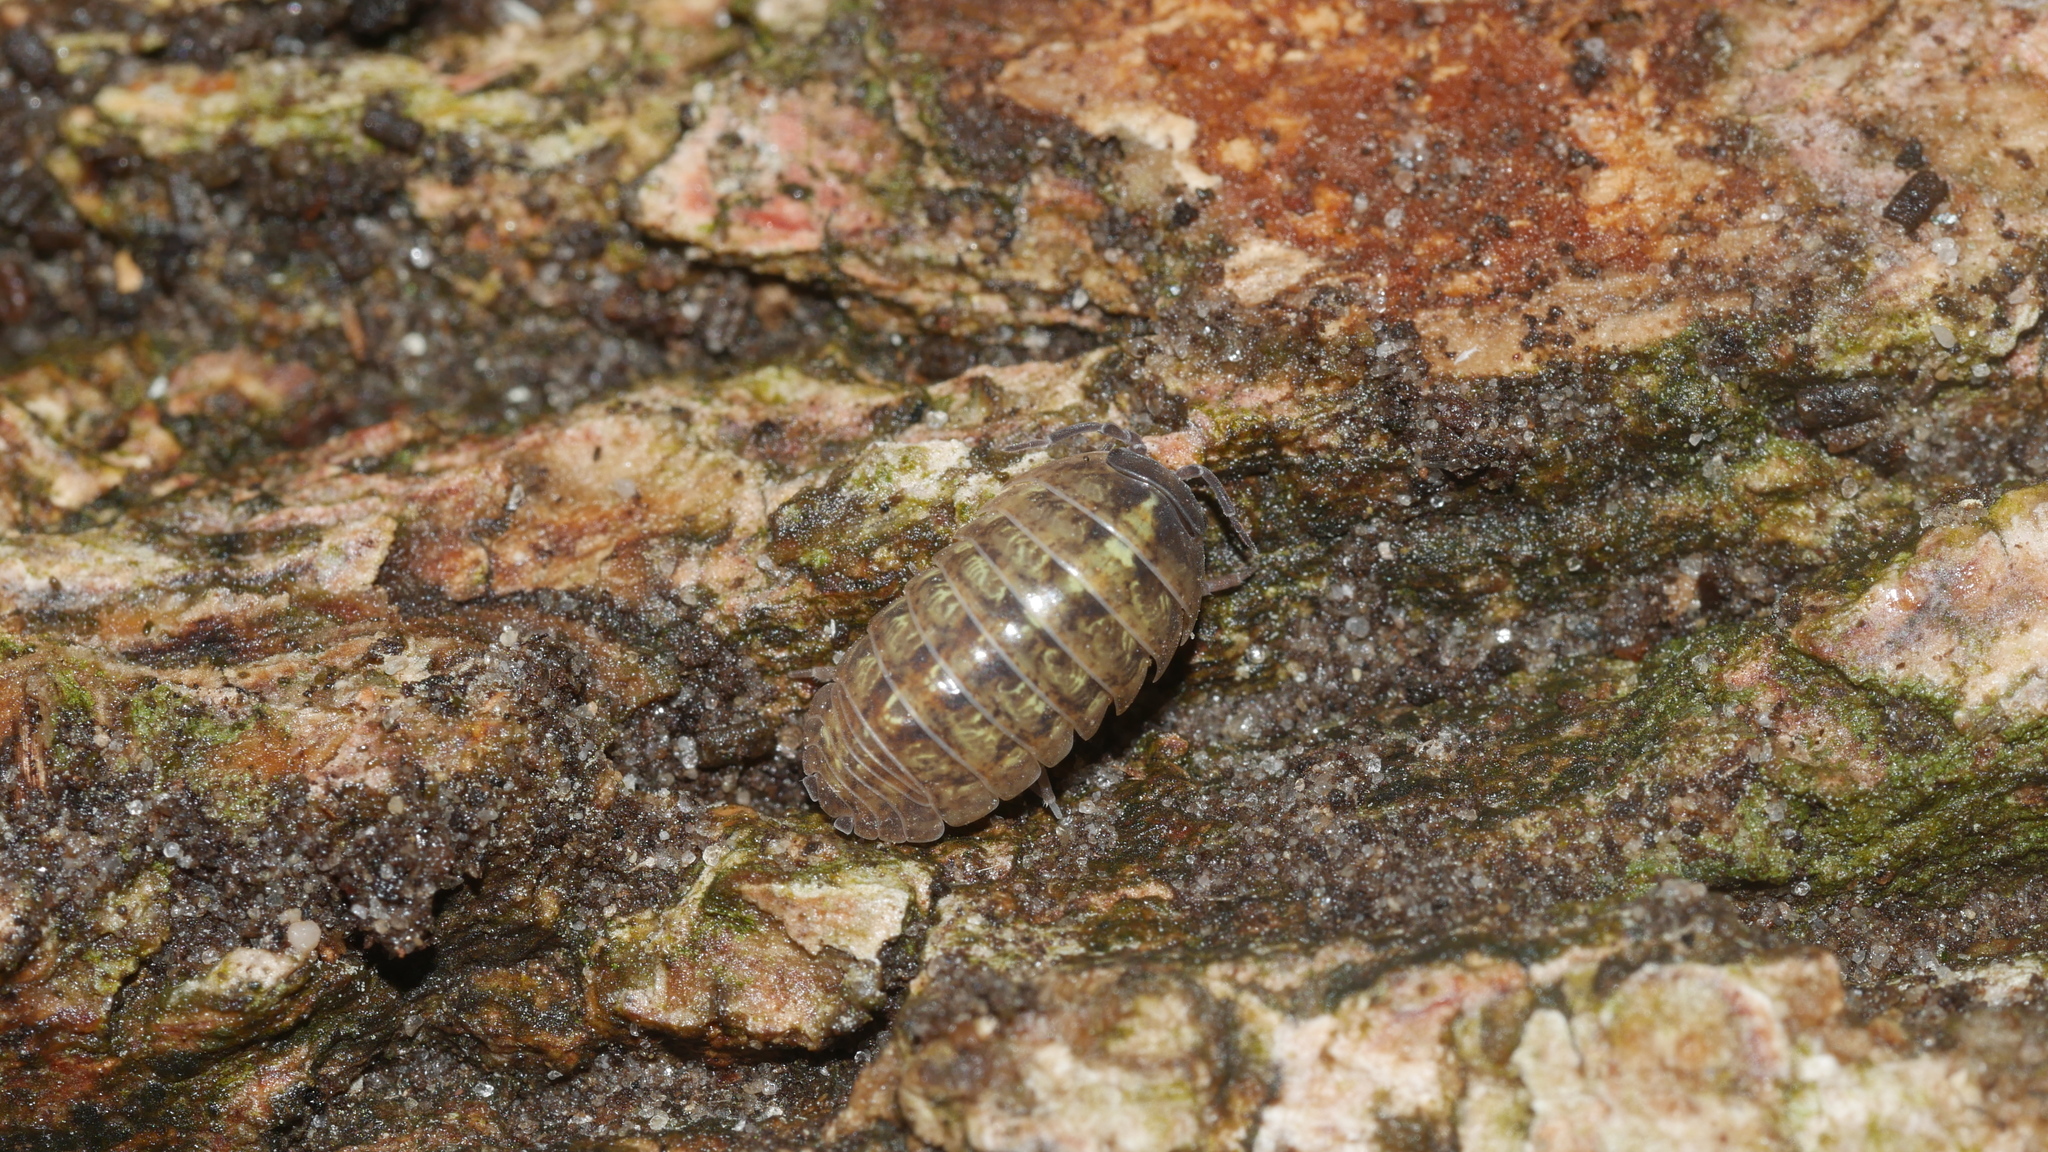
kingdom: Animalia
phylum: Arthropoda
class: Malacostraca
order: Isopoda
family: Armadillidiidae
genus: Armadillidium
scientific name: Armadillidium vulgare
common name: Common pill woodlouse
